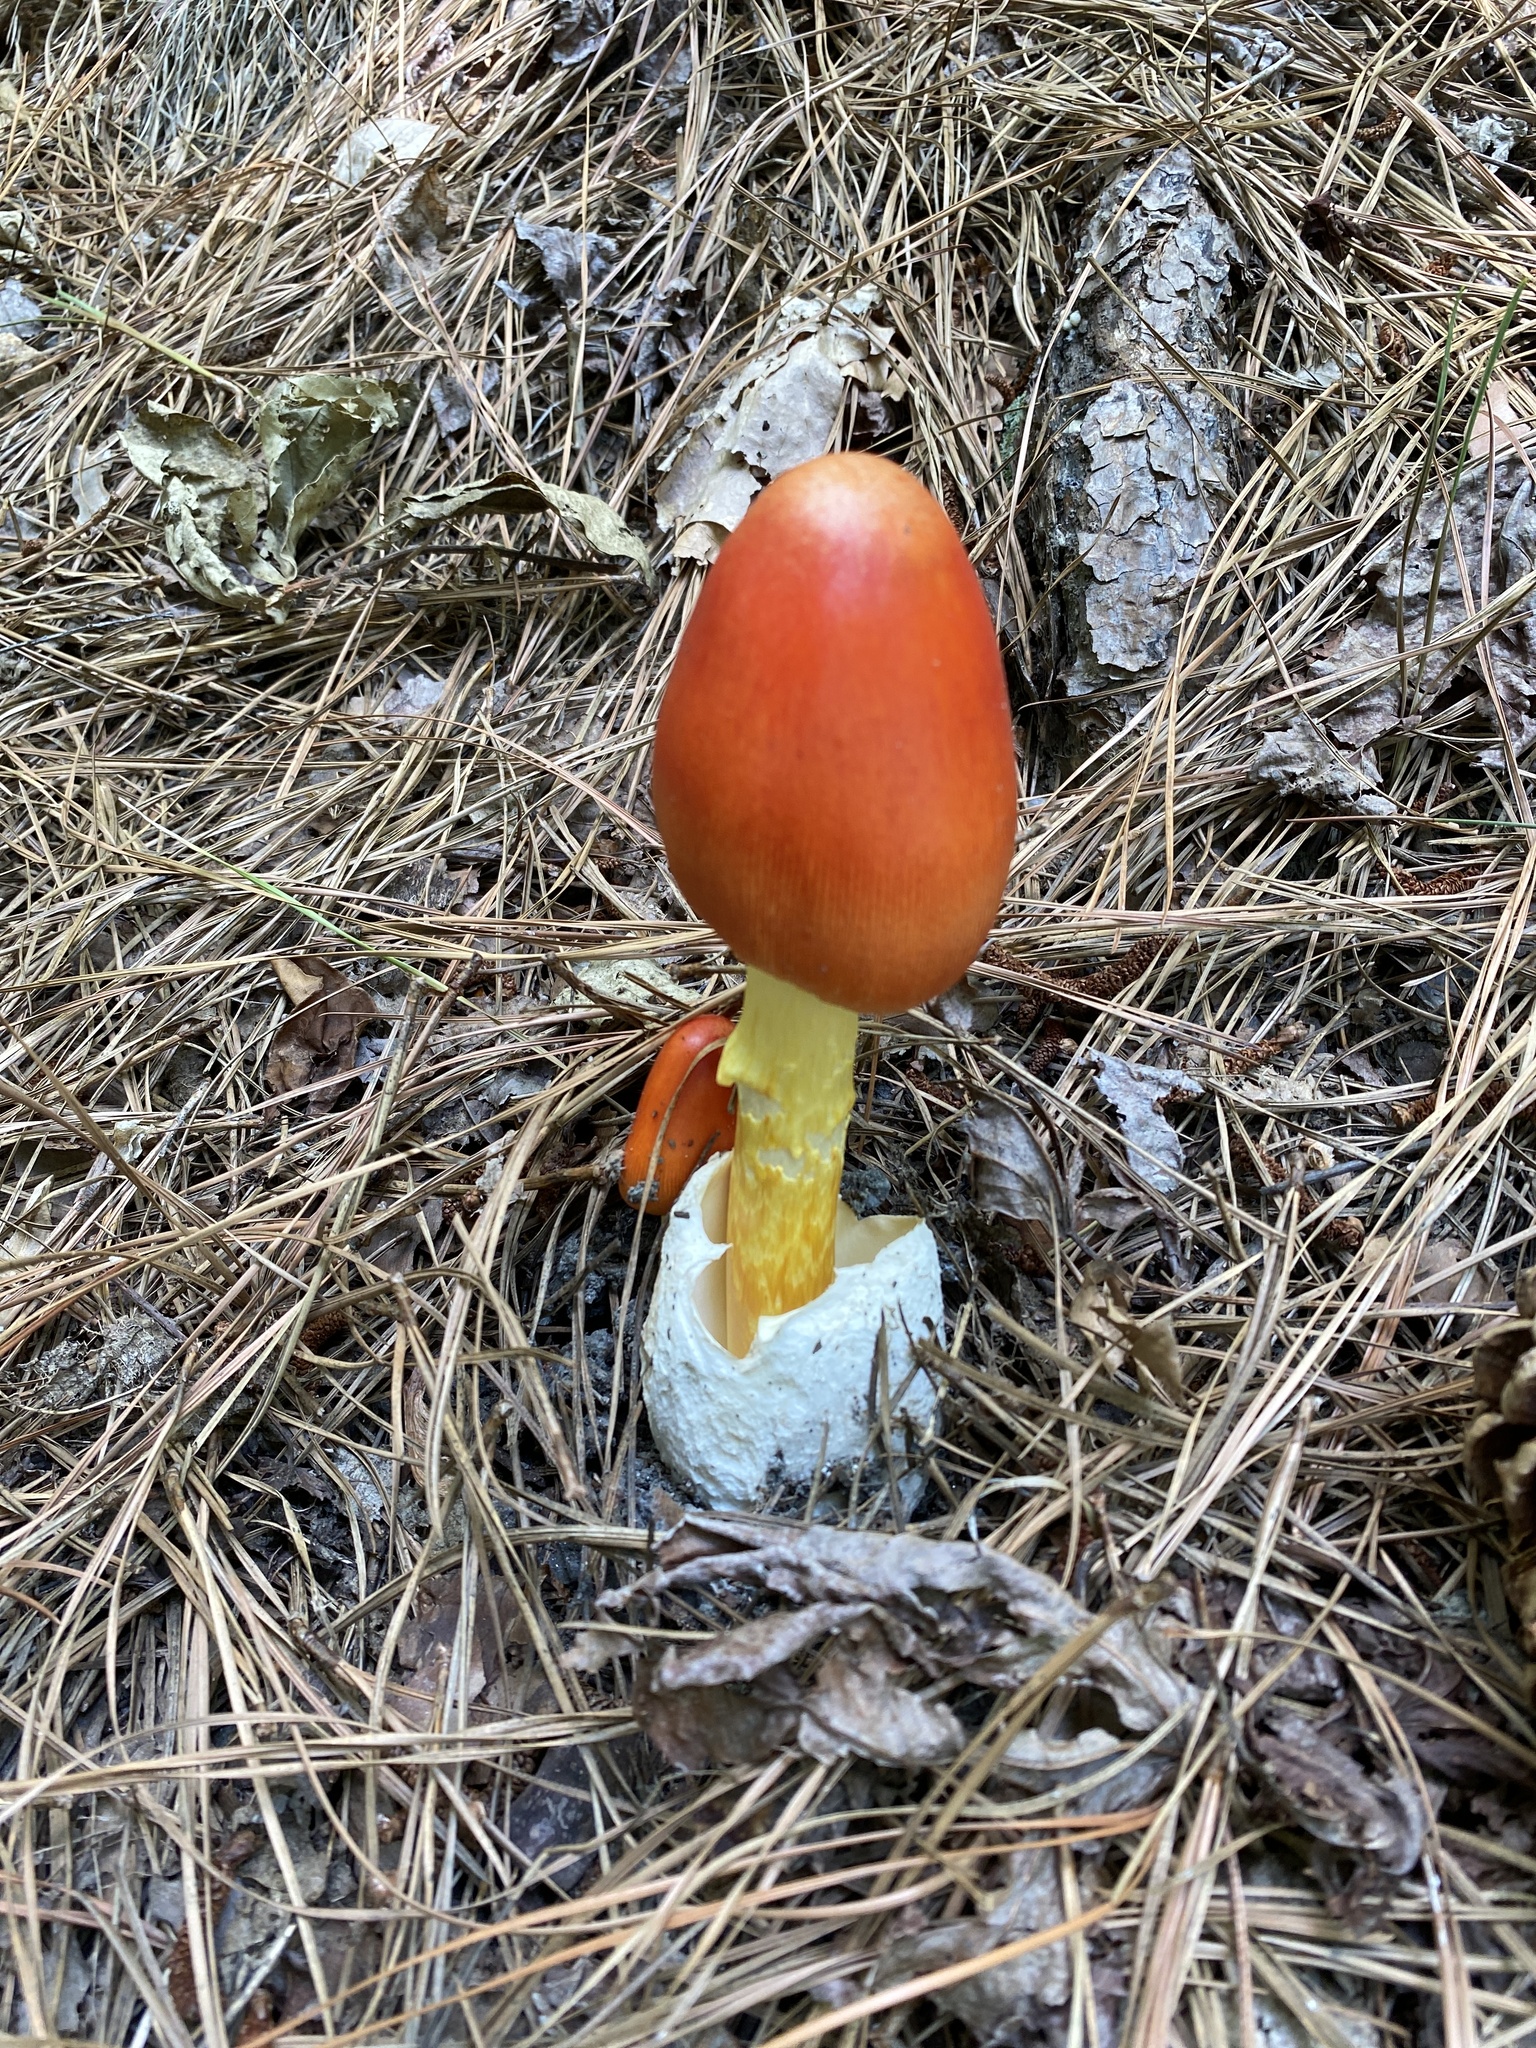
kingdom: Fungi
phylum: Basidiomycota
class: Agaricomycetes
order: Agaricales
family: Amanitaceae
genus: Amanita
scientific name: Amanita jacksonii
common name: Jackson's slender caesar
